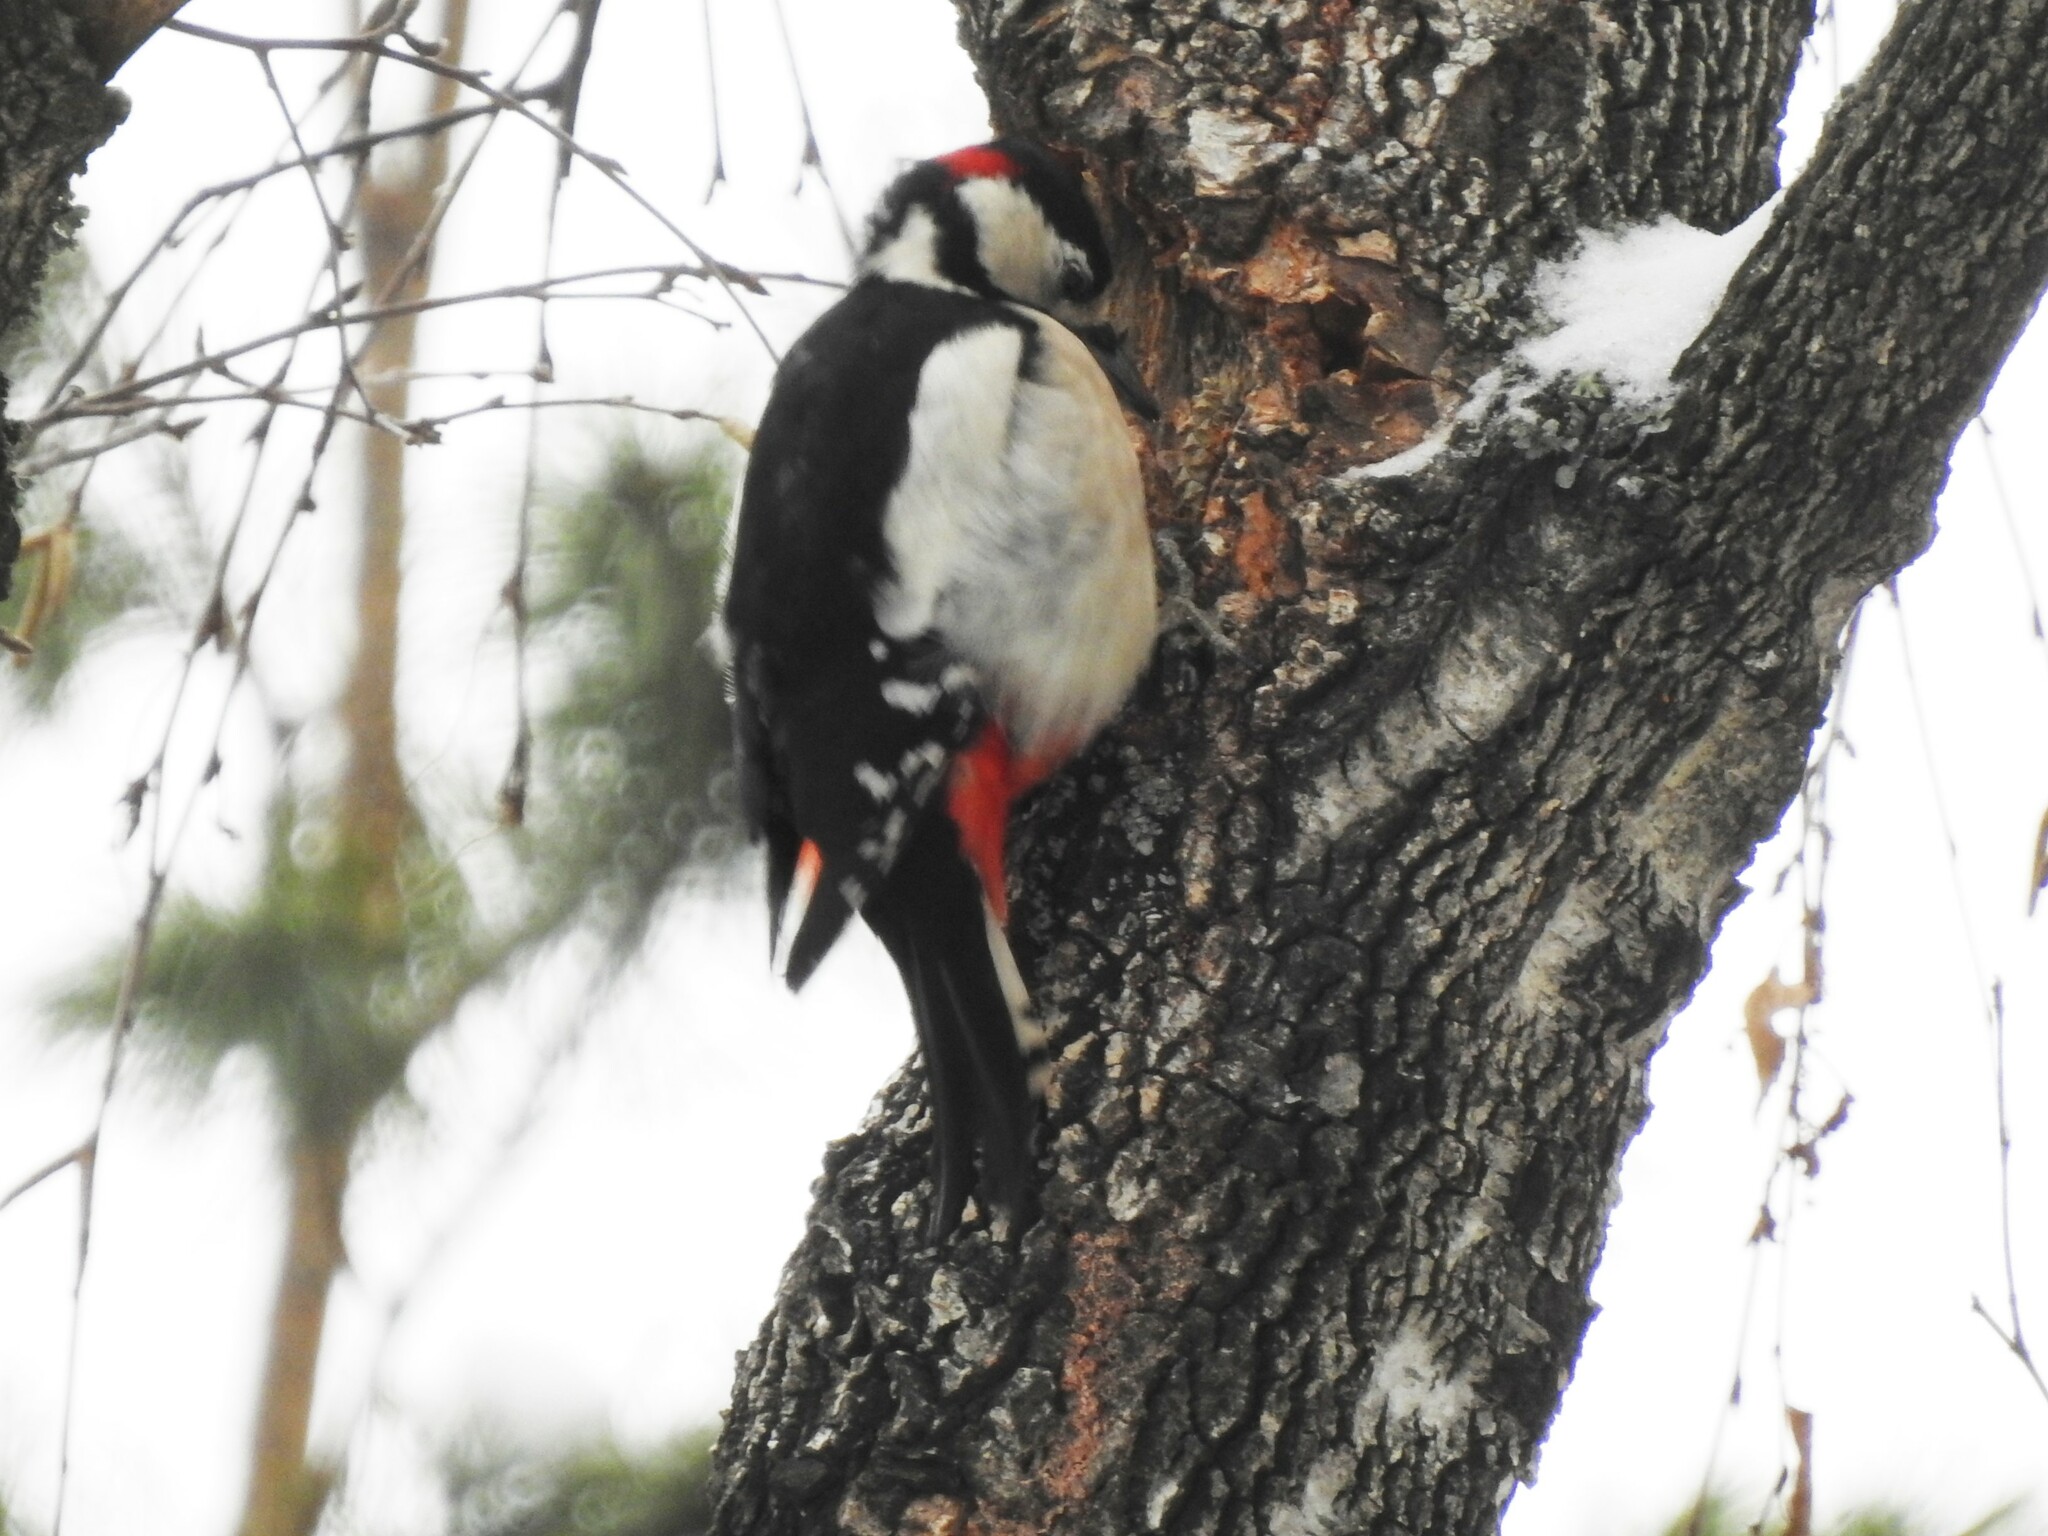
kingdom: Animalia
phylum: Chordata
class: Aves
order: Piciformes
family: Picidae
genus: Dendrocopos
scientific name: Dendrocopos major
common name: Great spotted woodpecker
